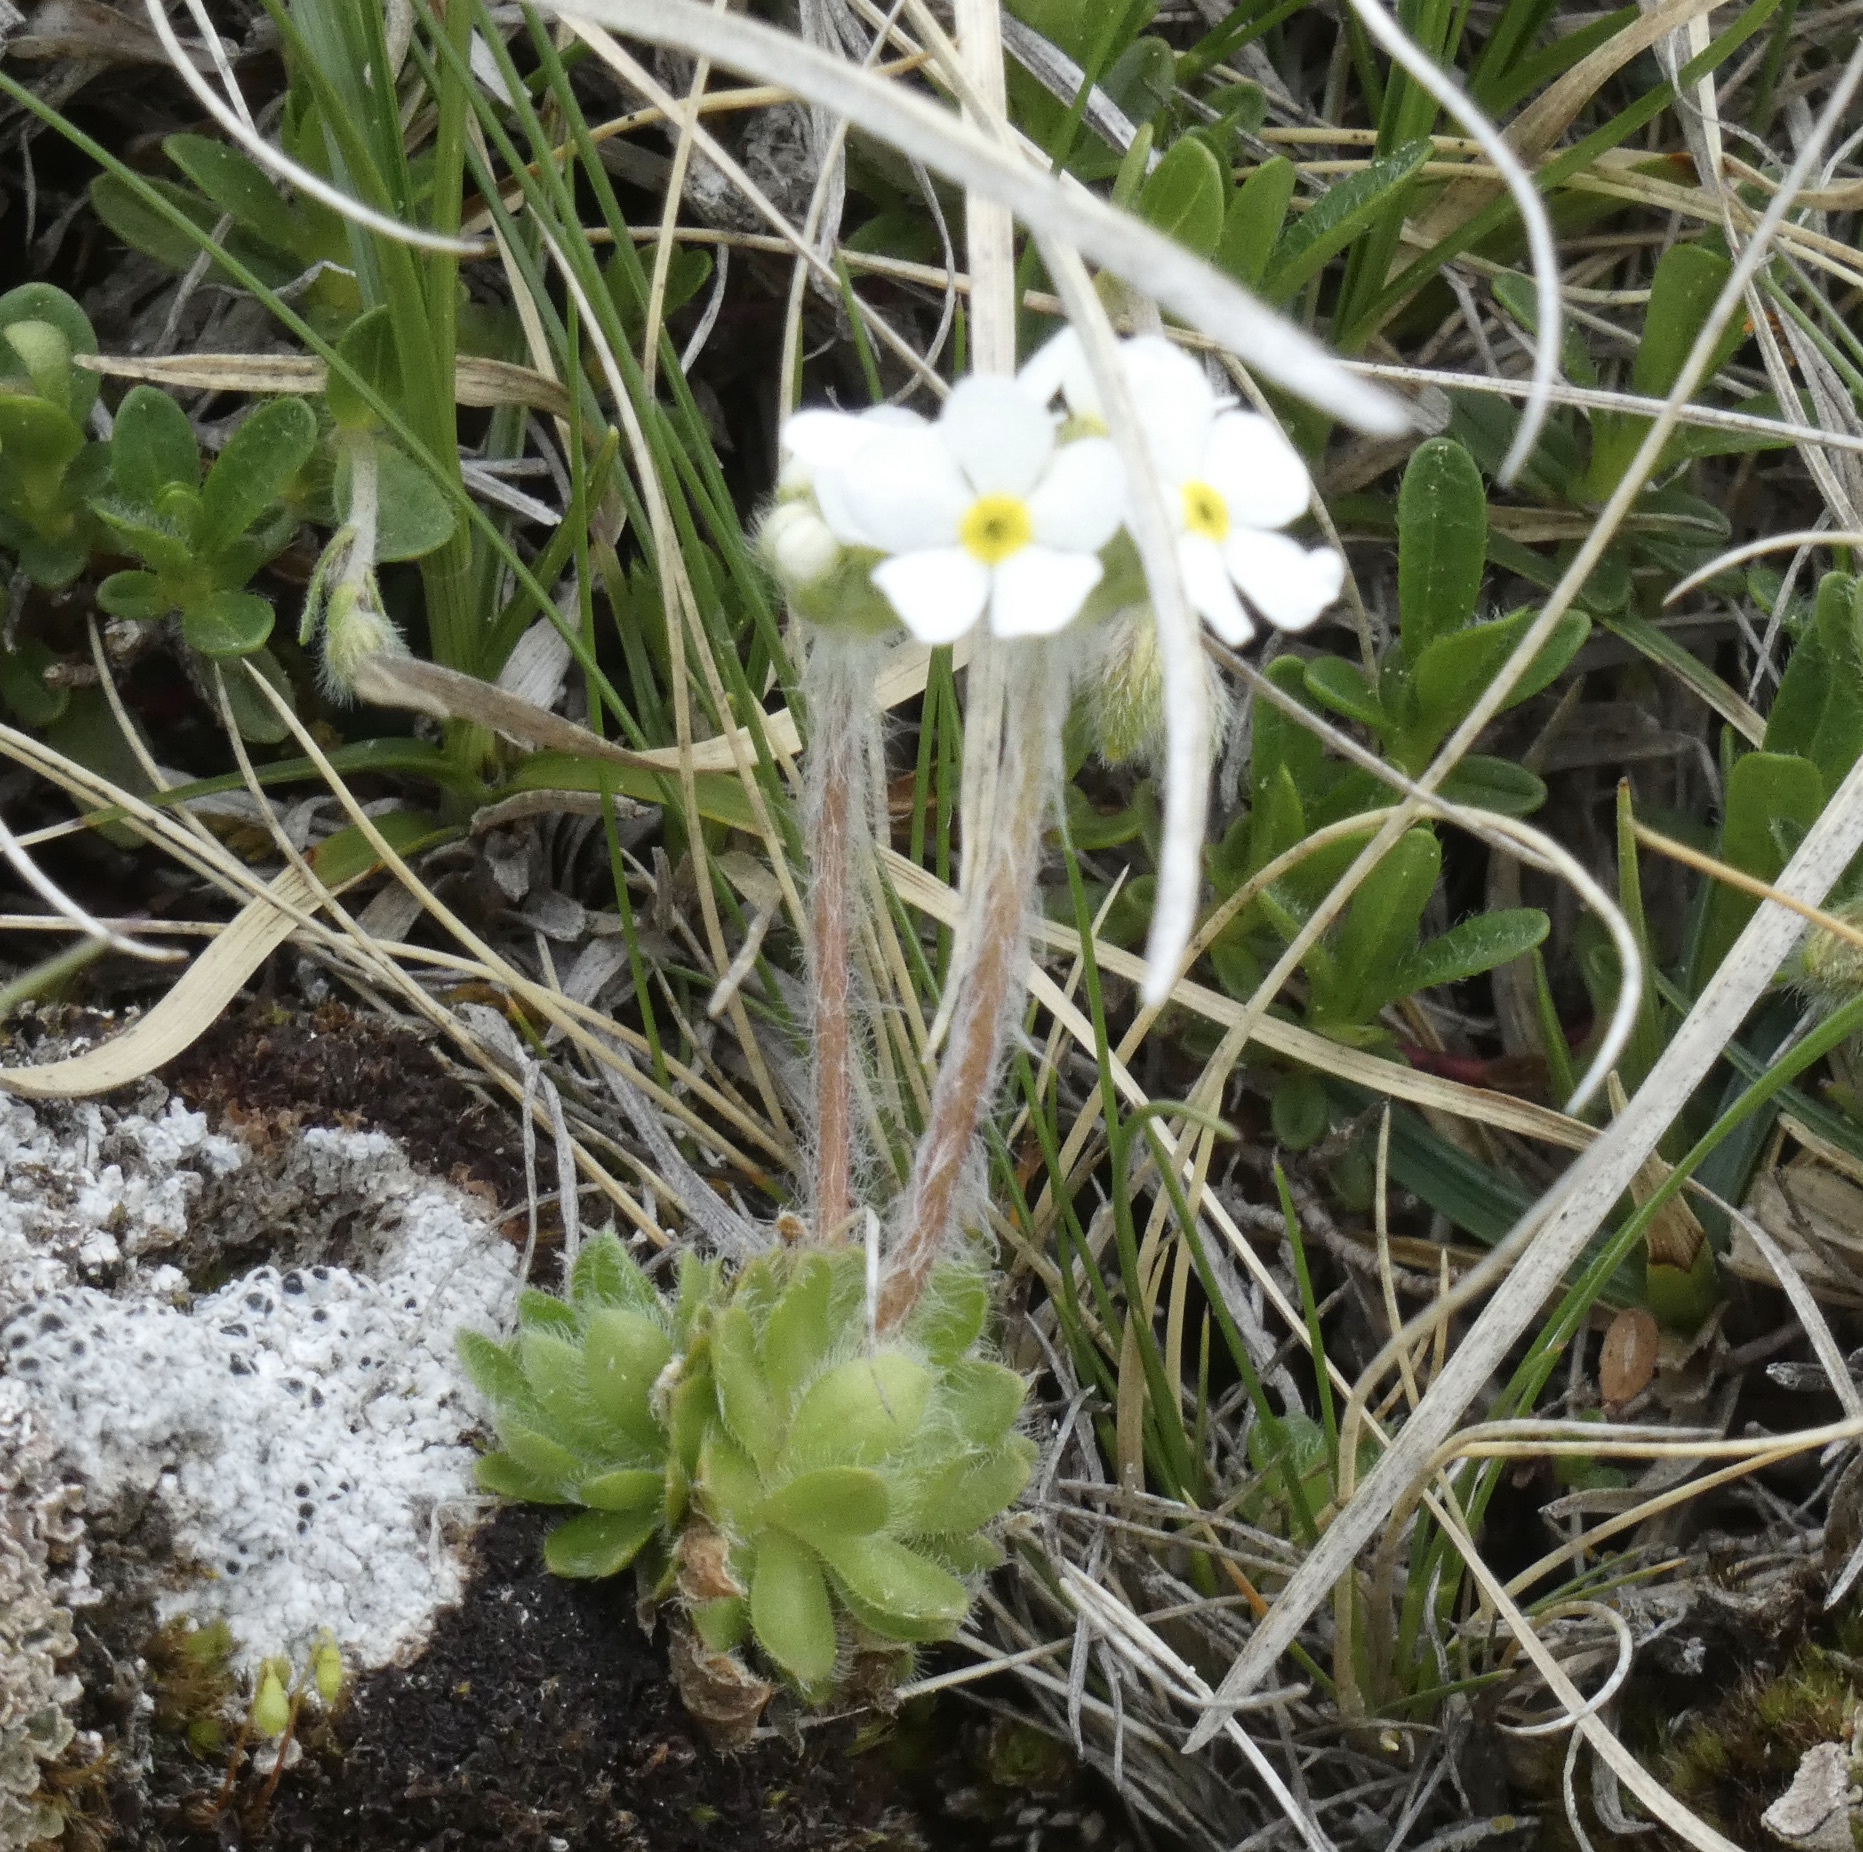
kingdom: Plantae
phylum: Tracheophyta
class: Magnoliopsida
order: Ericales
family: Primulaceae
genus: Androsace
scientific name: Androsace chamaejasme
